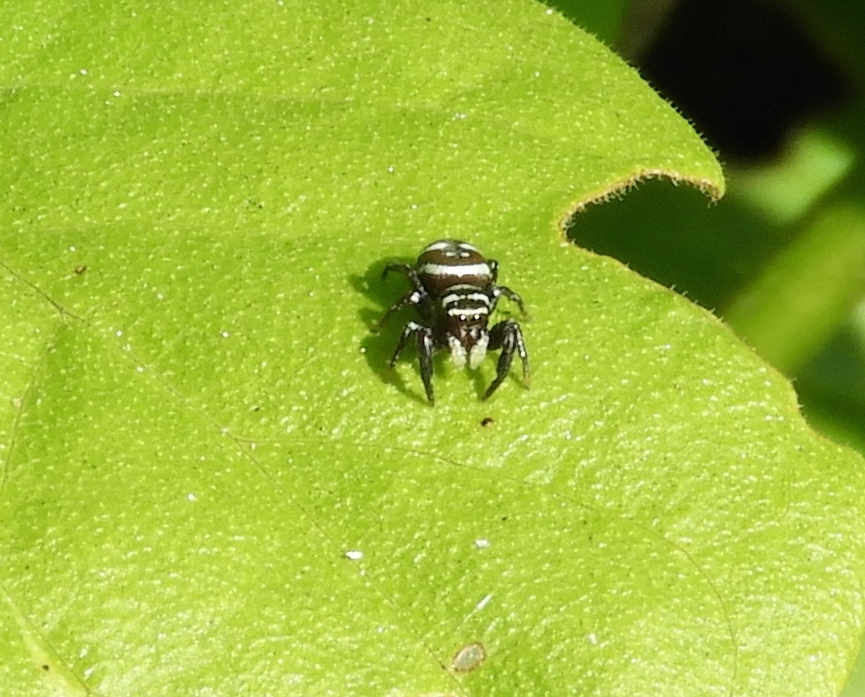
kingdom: Animalia
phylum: Arthropoda
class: Arachnida
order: Araneae
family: Salticidae
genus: Sassacus
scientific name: Sassacus
